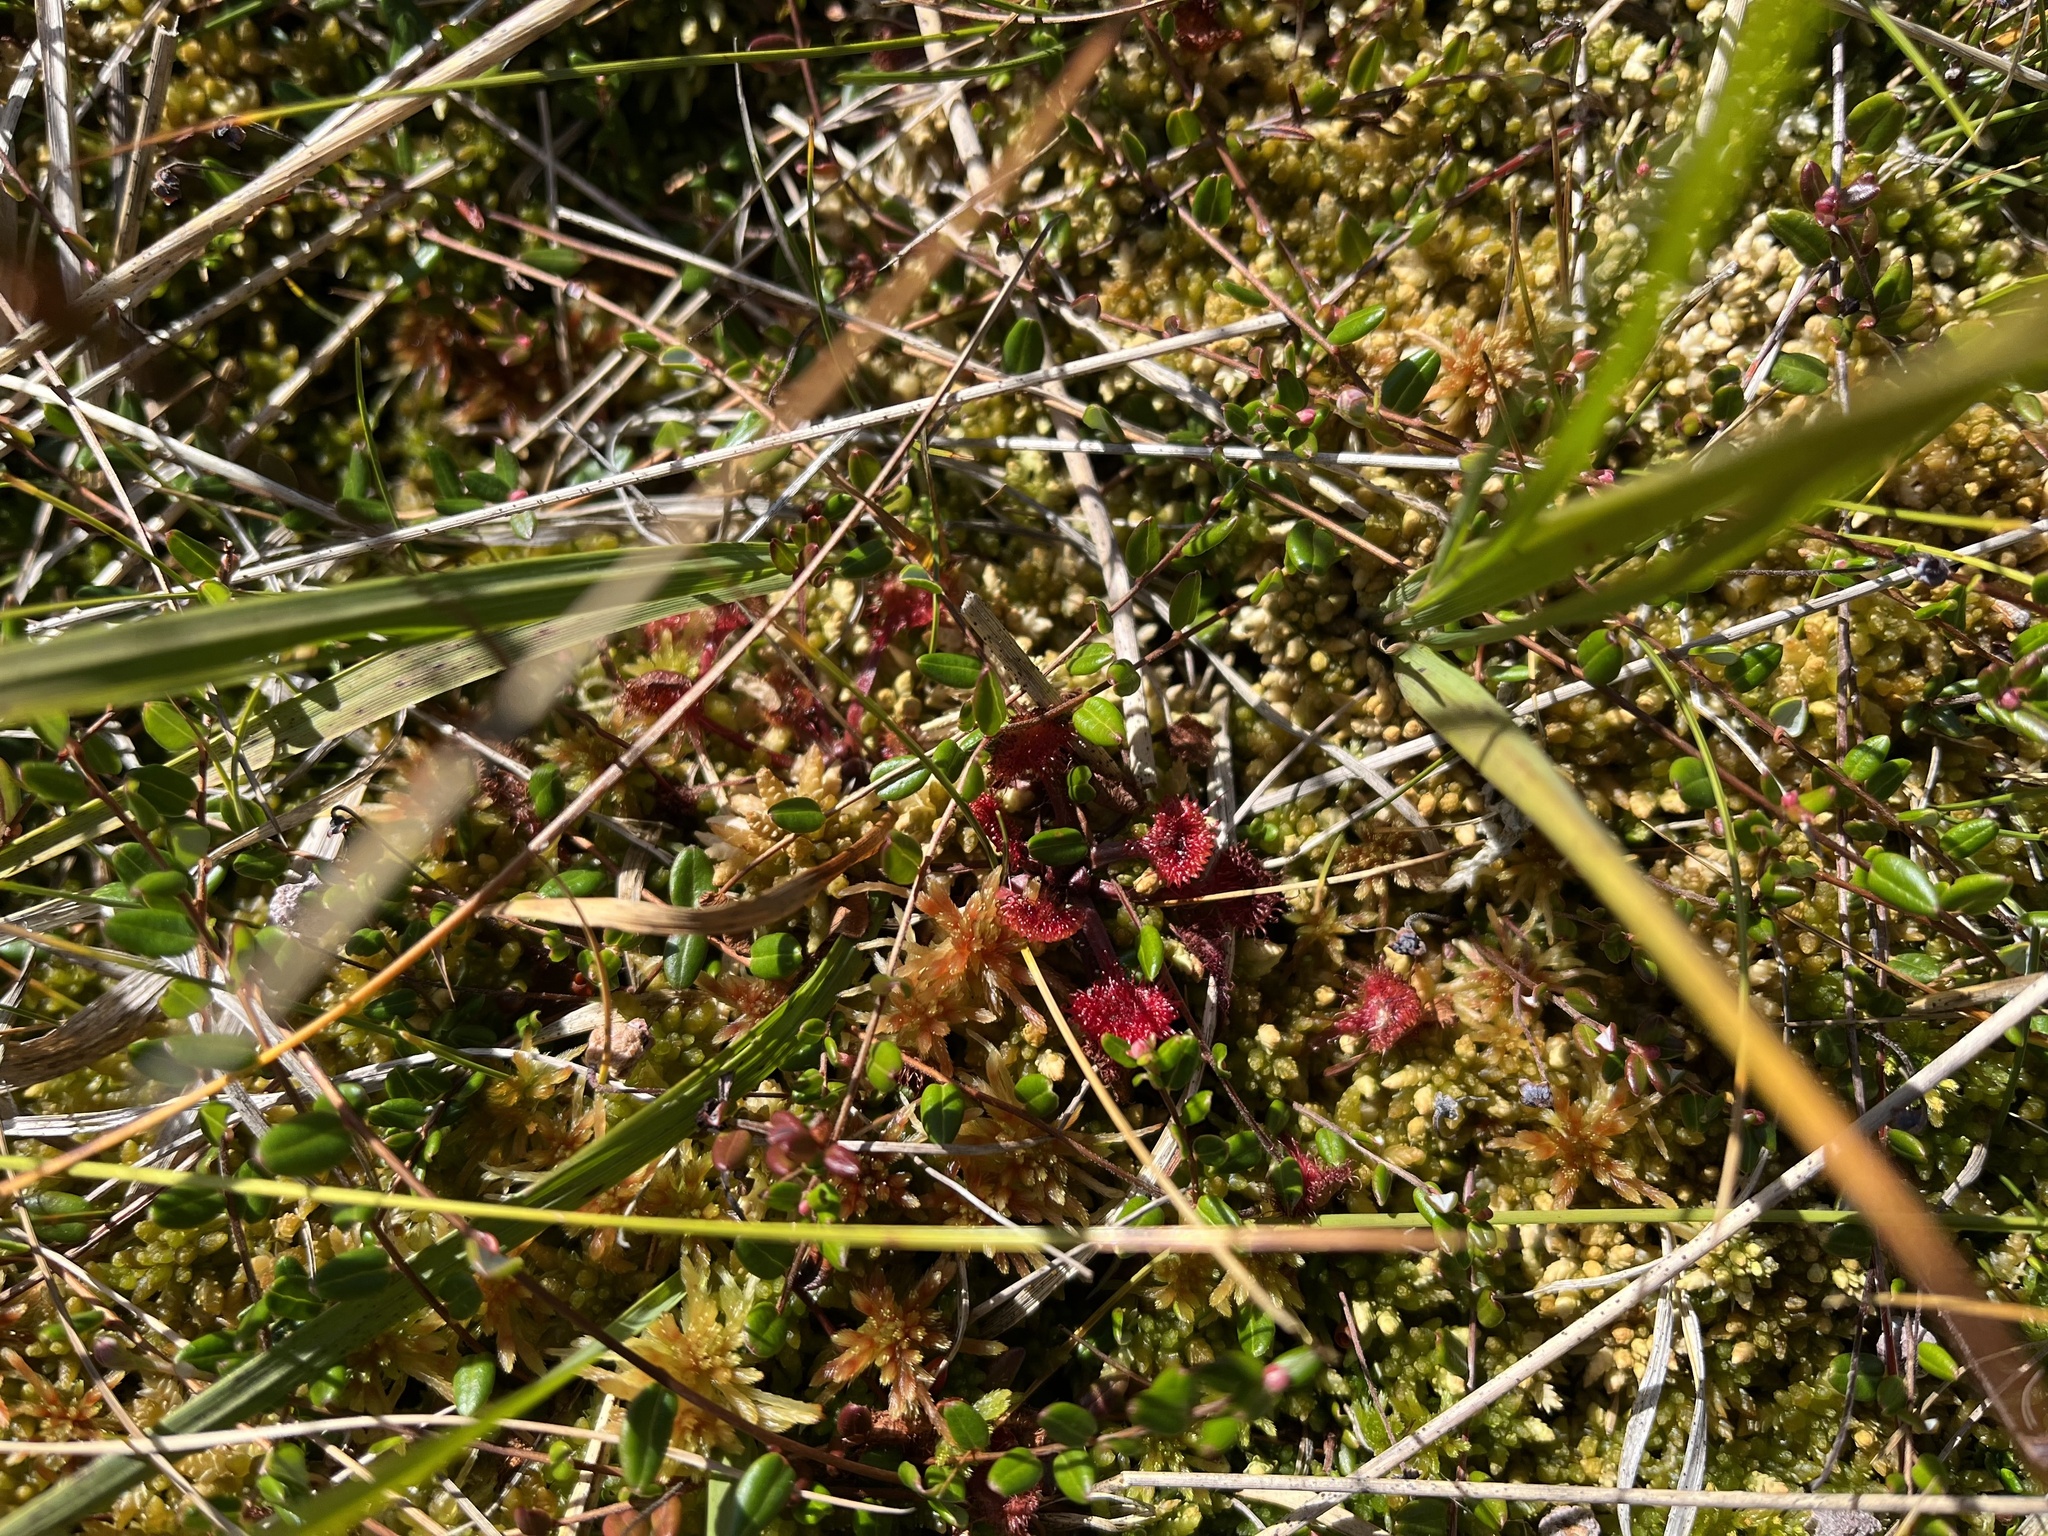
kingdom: Plantae
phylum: Tracheophyta
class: Magnoliopsida
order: Caryophyllales
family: Droseraceae
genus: Drosera
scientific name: Drosera rotundifolia
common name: Round-leaved sundew
